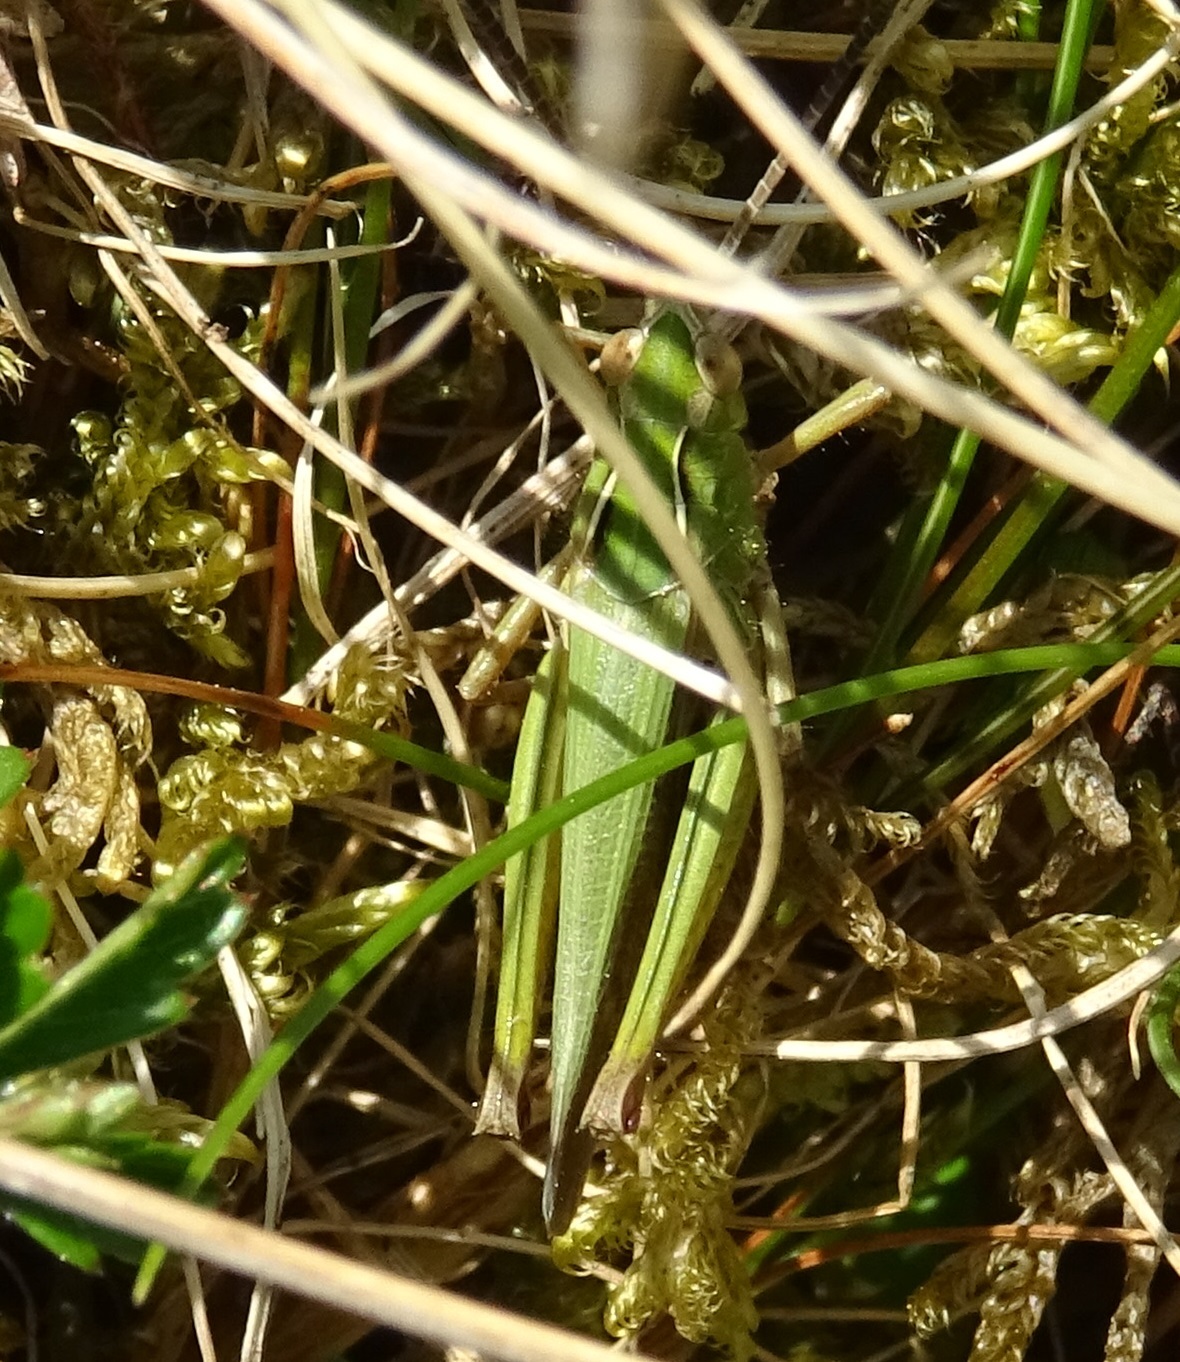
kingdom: Animalia
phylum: Arthropoda
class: Insecta
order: Orthoptera
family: Acrididae
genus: Omocestus
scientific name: Omocestus viridulus
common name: Common green grasshopper
